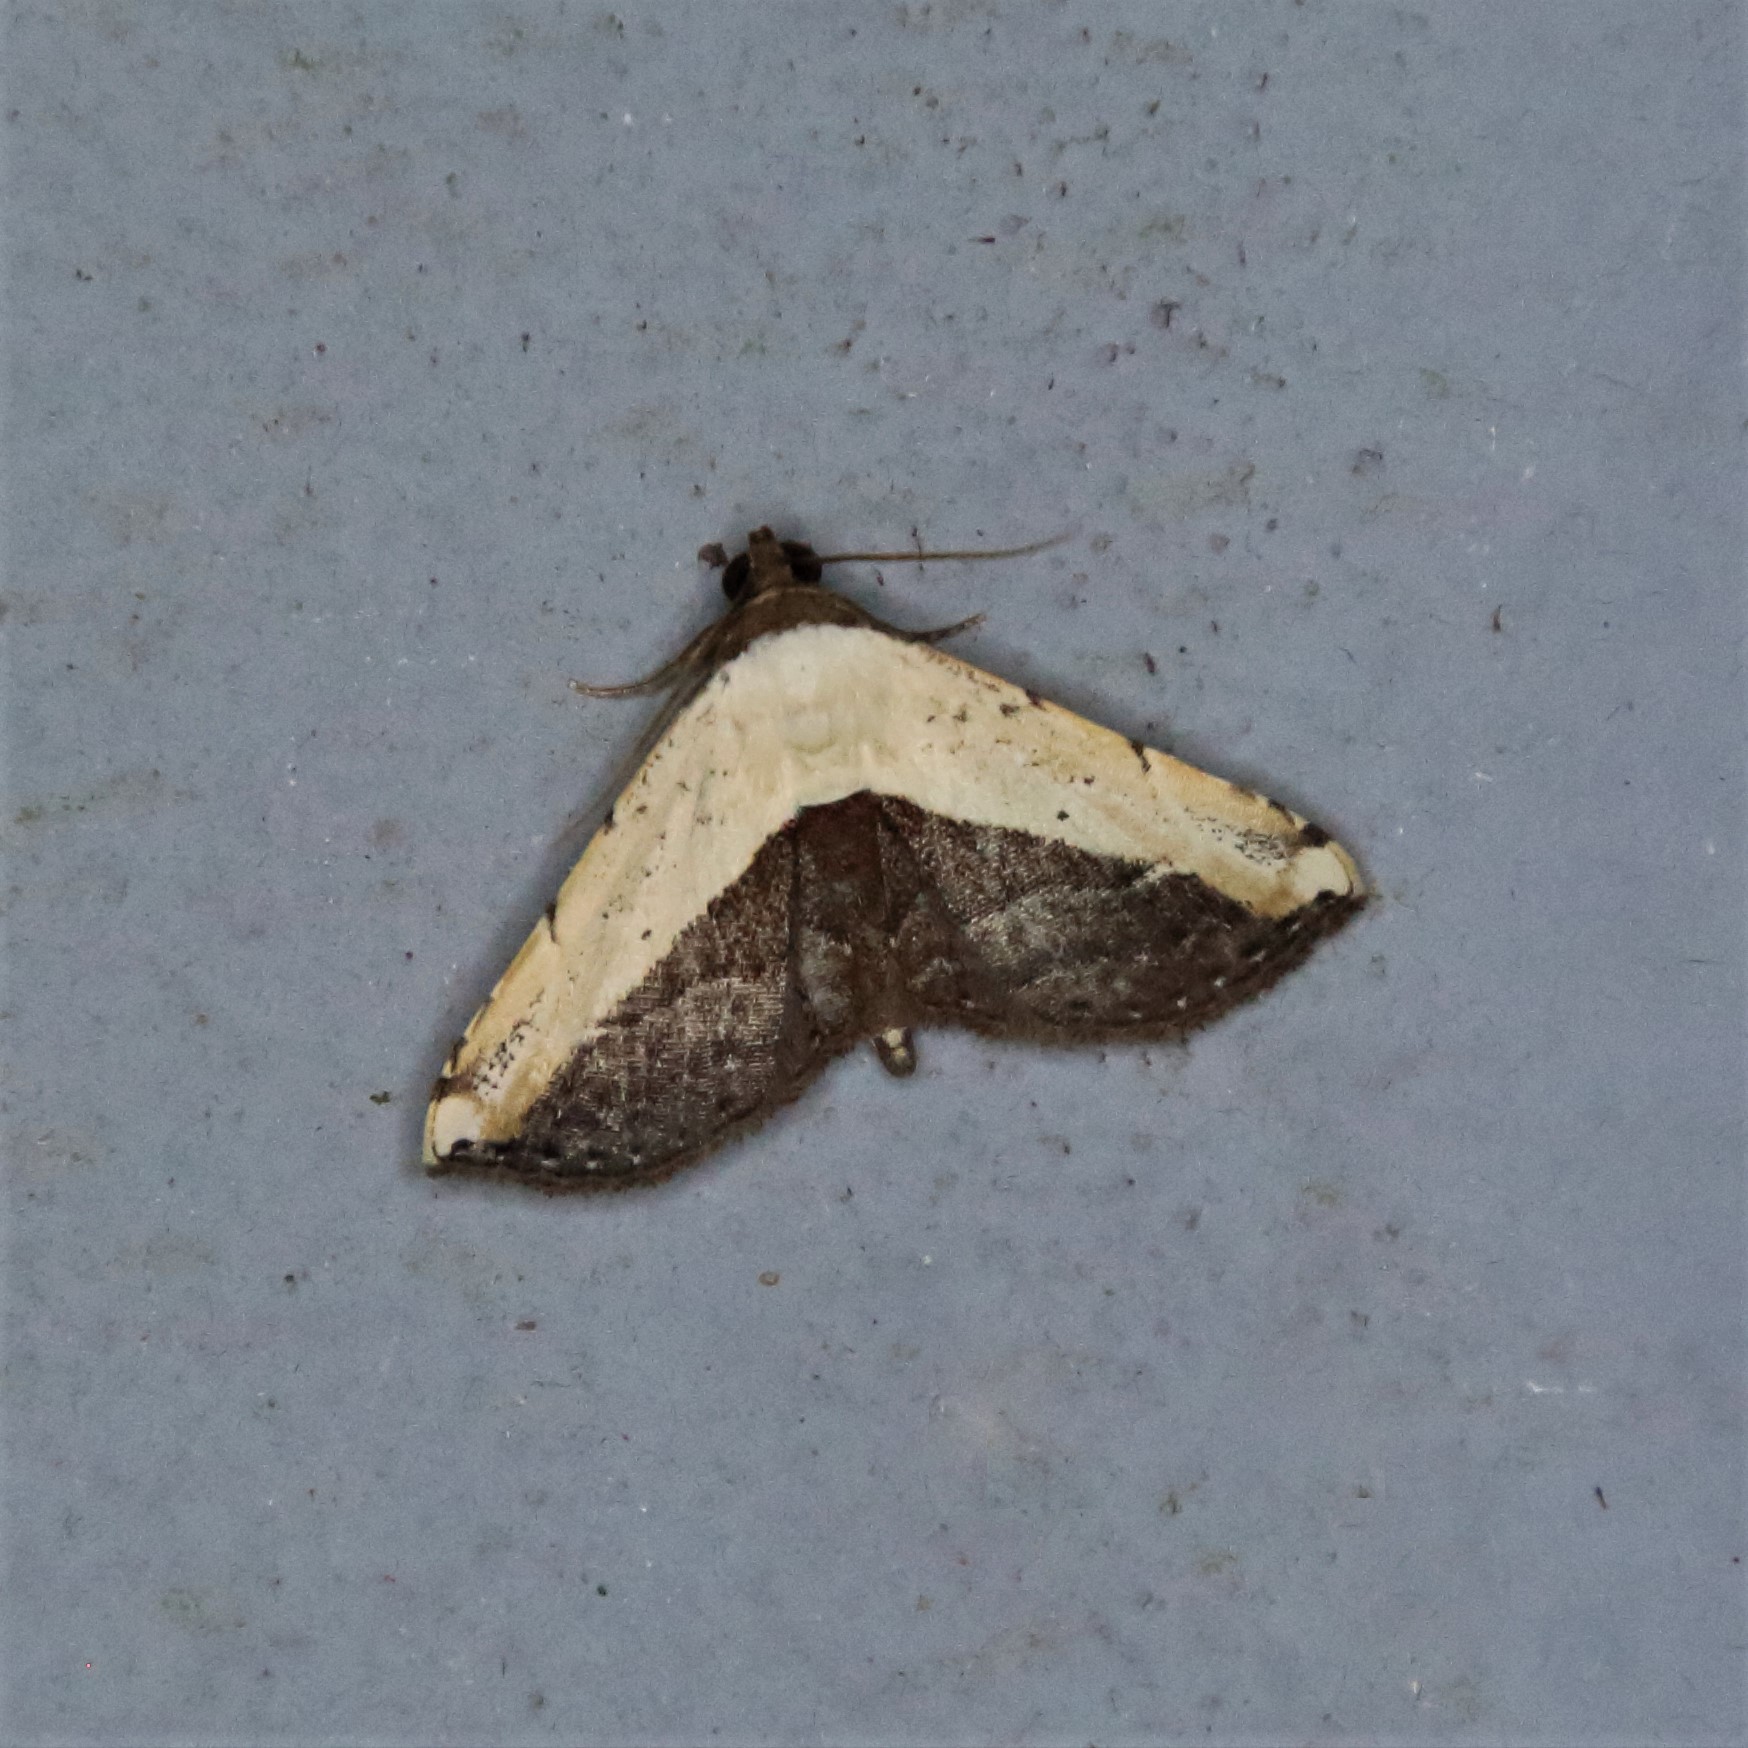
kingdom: Animalia
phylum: Arthropoda
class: Insecta
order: Lepidoptera
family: Noctuidae
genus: Ataboruza
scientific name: Ataboruza divisa
